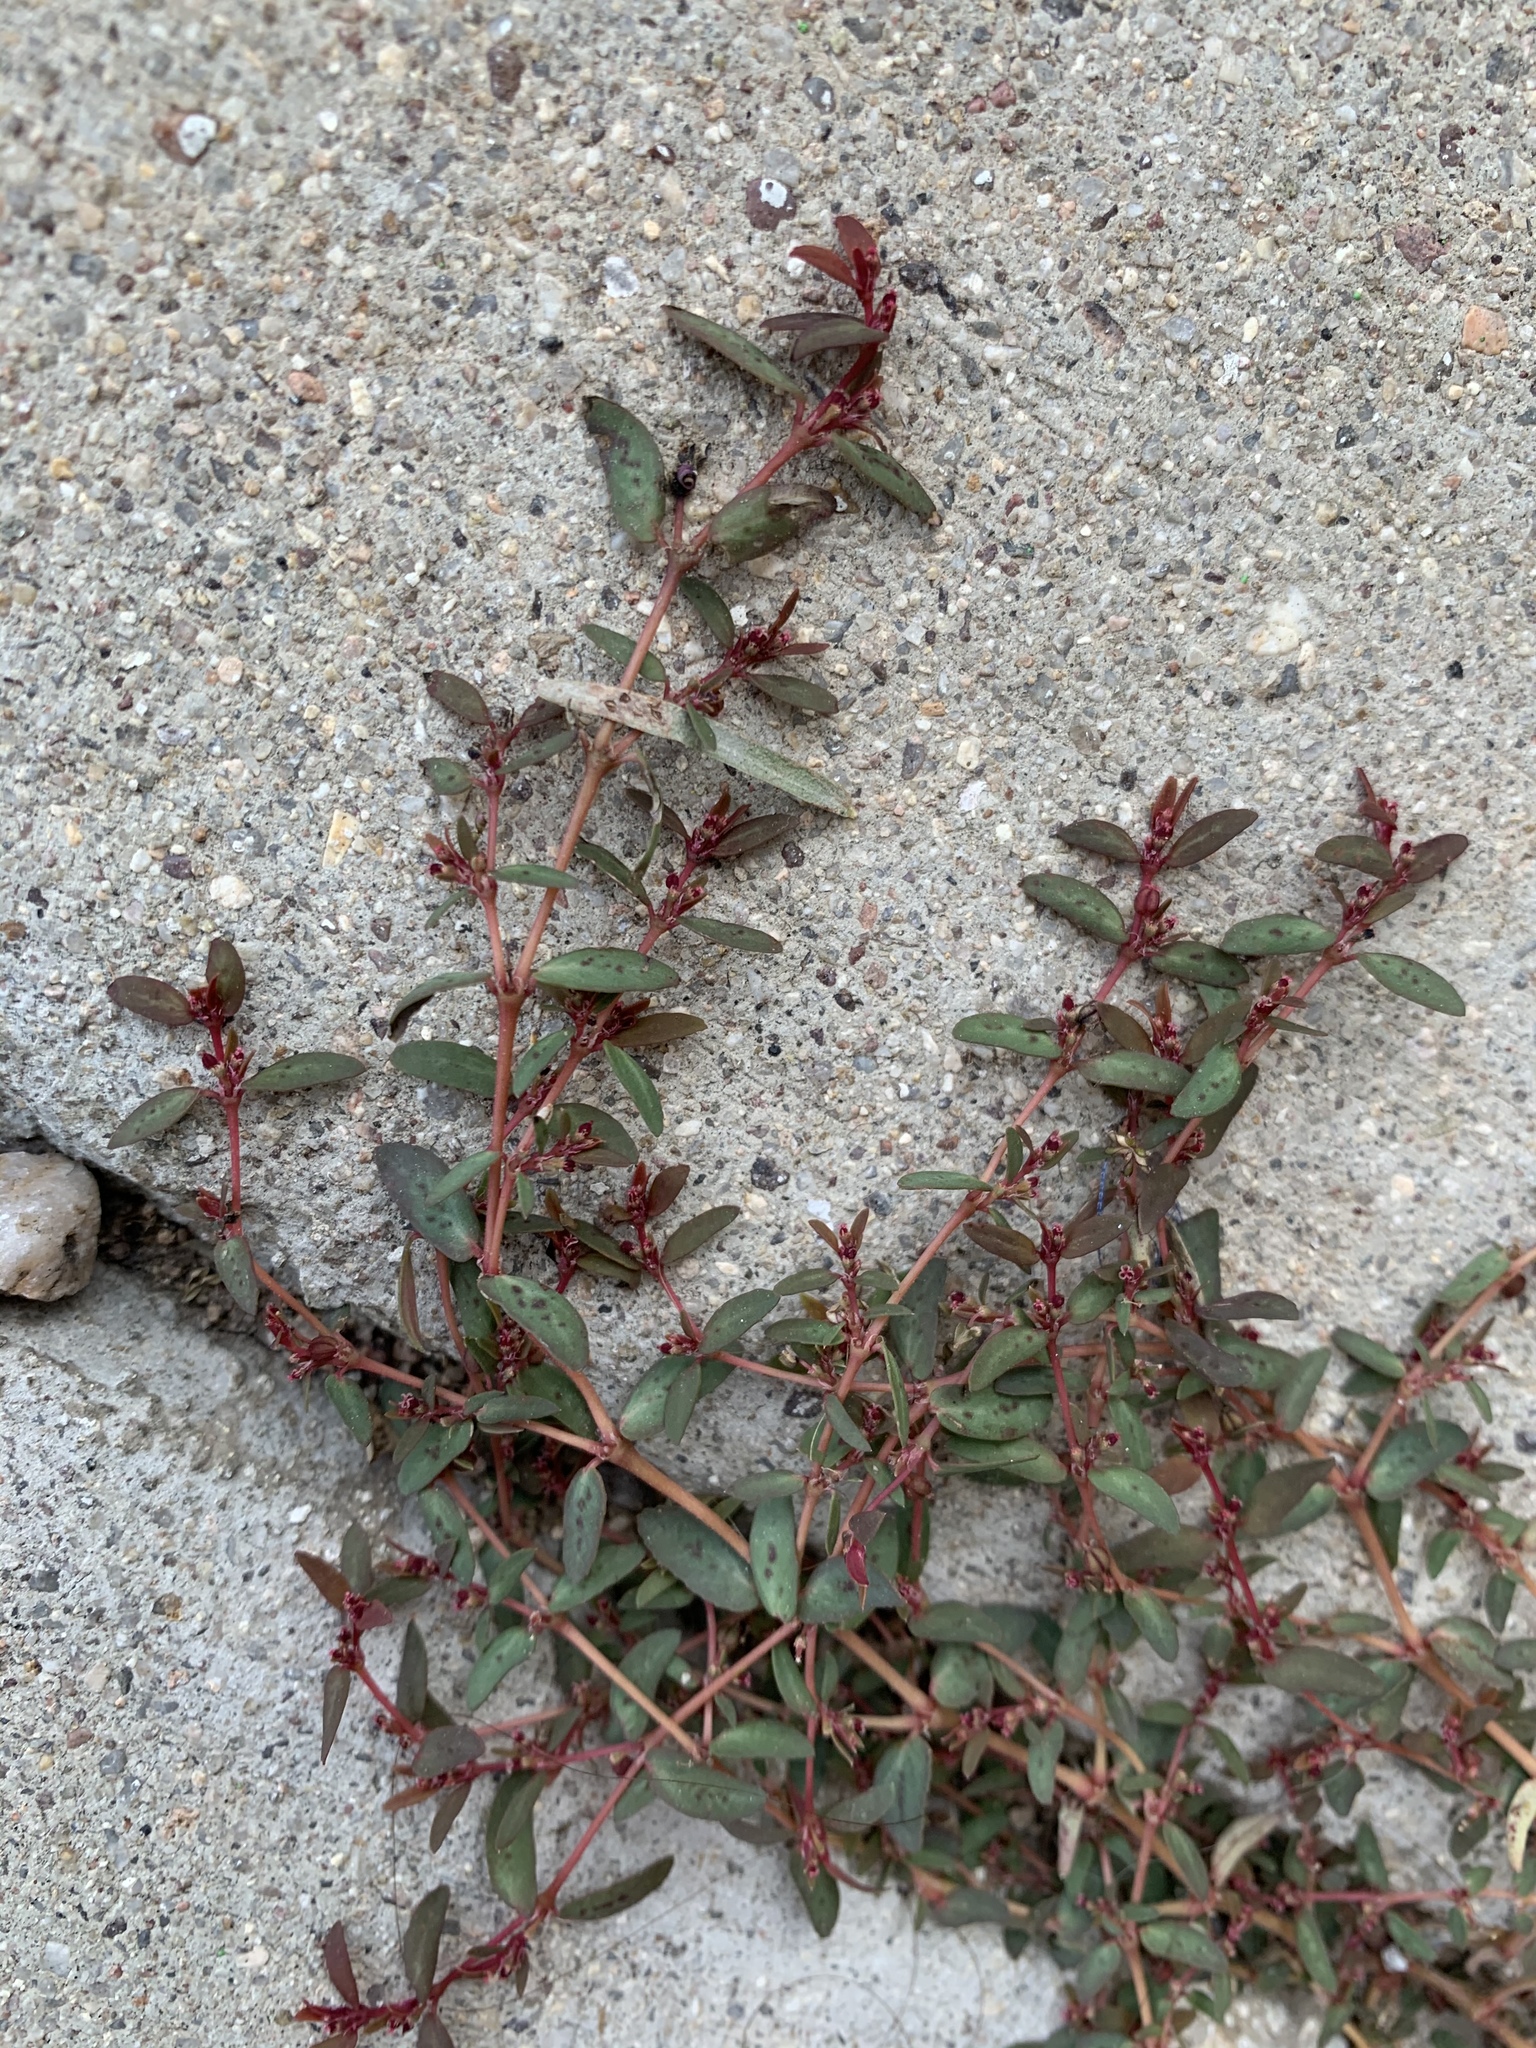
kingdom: Plantae
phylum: Tracheophyta
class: Magnoliopsida
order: Malpighiales
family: Euphorbiaceae
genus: Euphorbia
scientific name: Euphorbia abramsiana
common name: Abram's spurge
